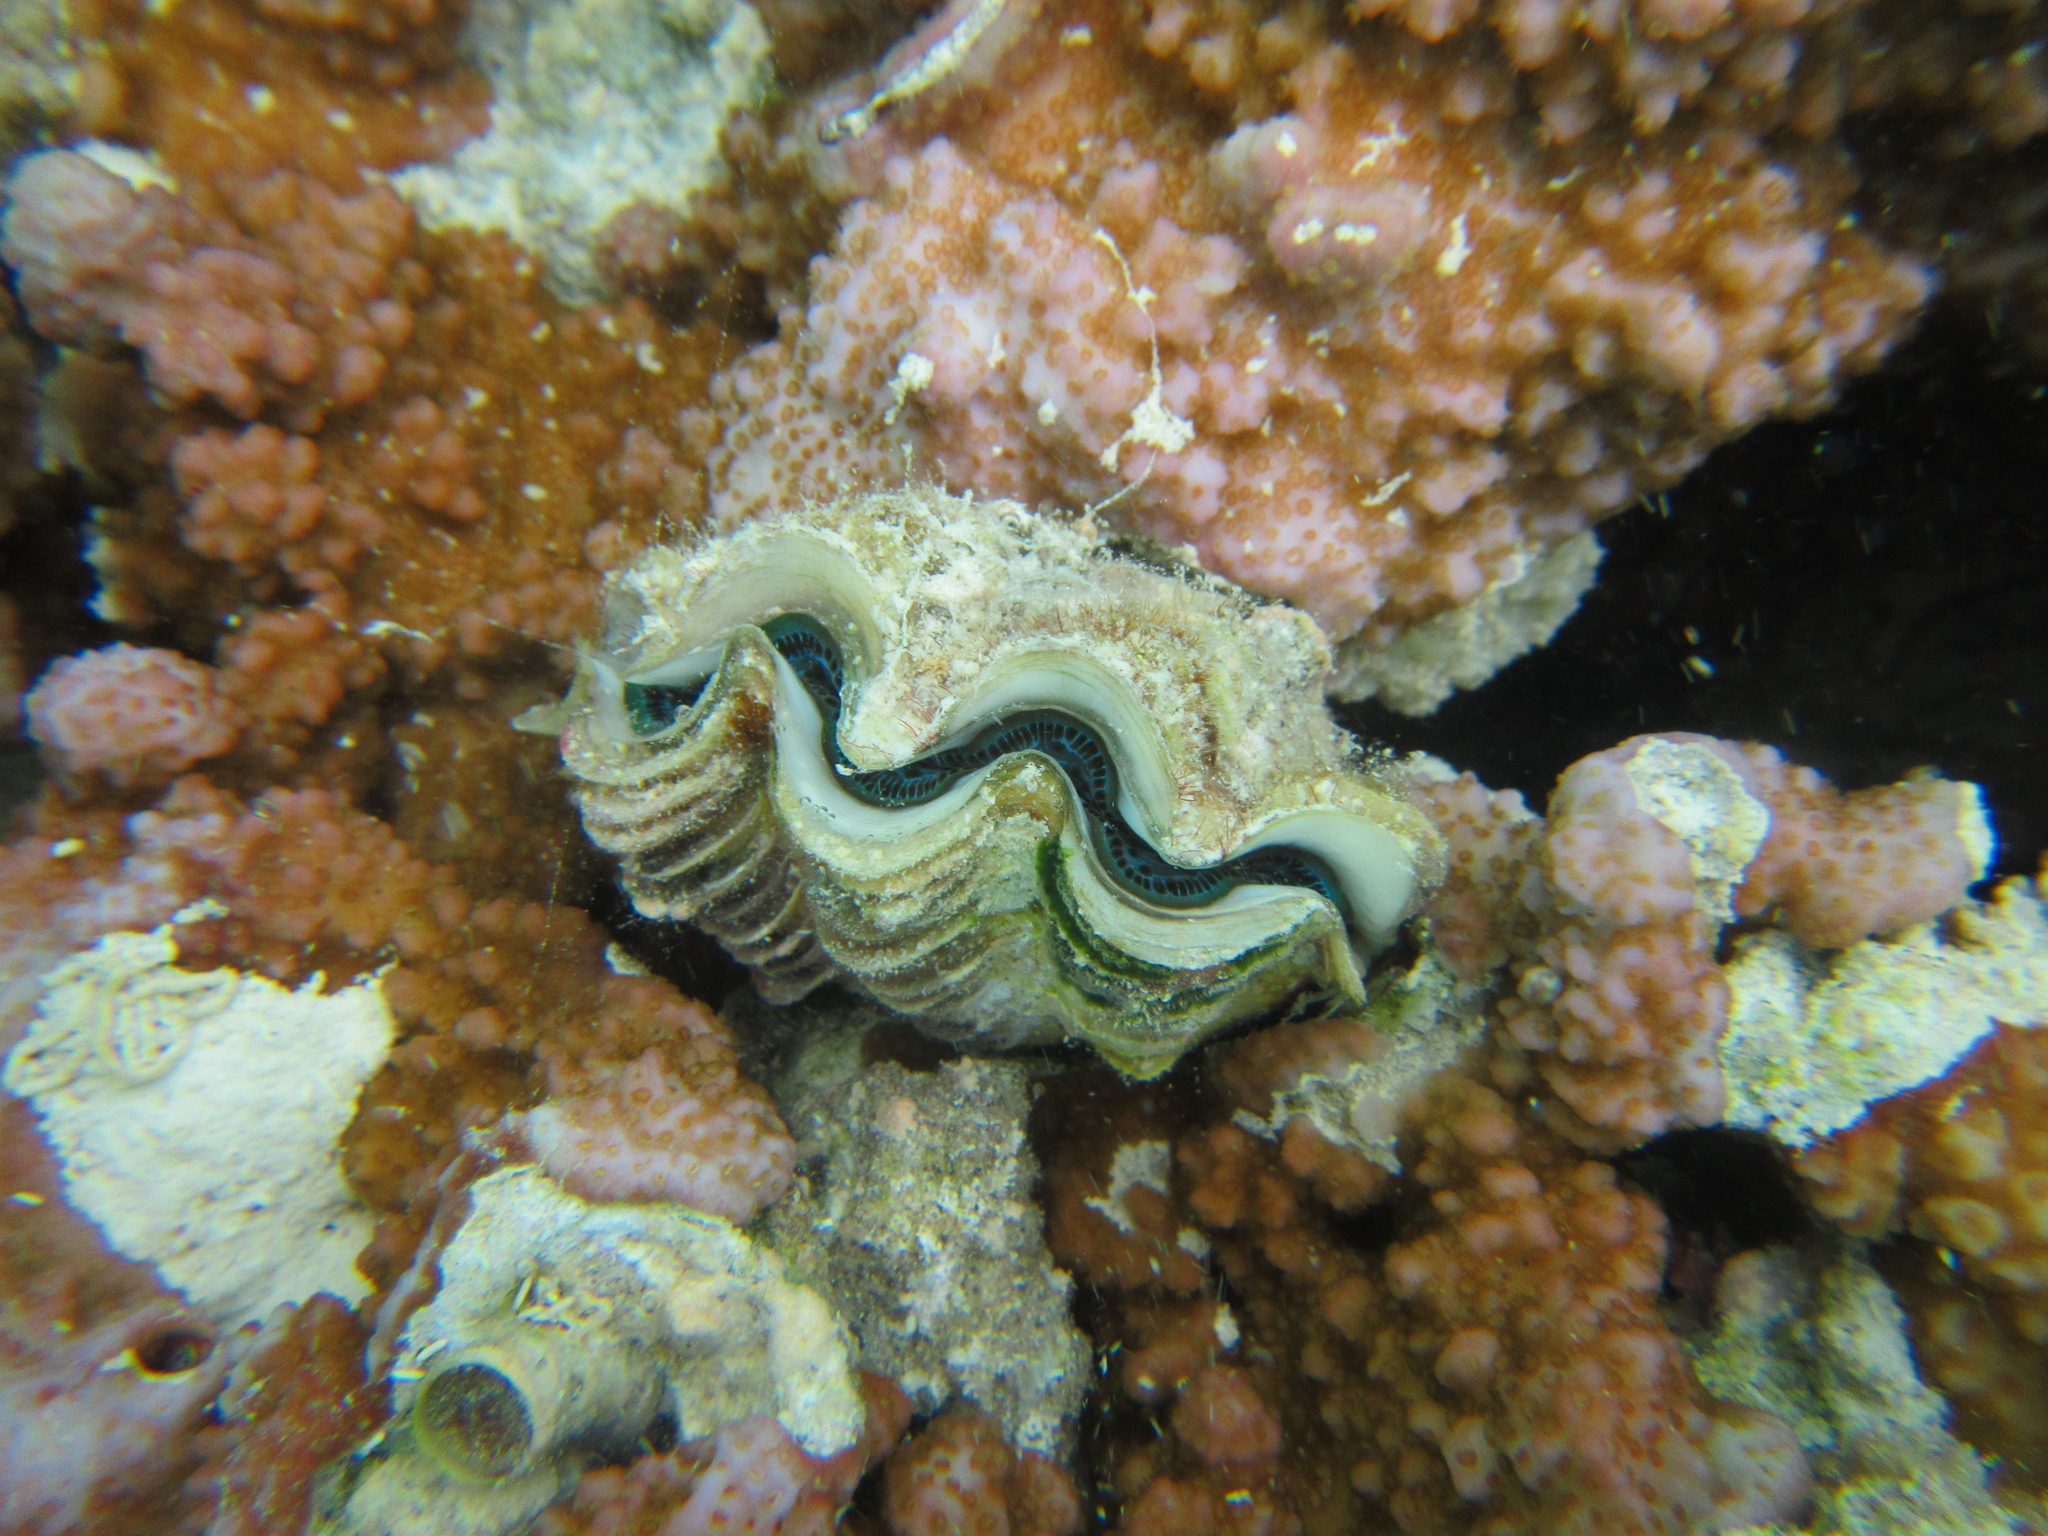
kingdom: Animalia
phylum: Mollusca
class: Bivalvia
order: Cardiida
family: Cardiidae
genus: Tridacna
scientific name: Tridacna maxima
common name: Small giant clam
